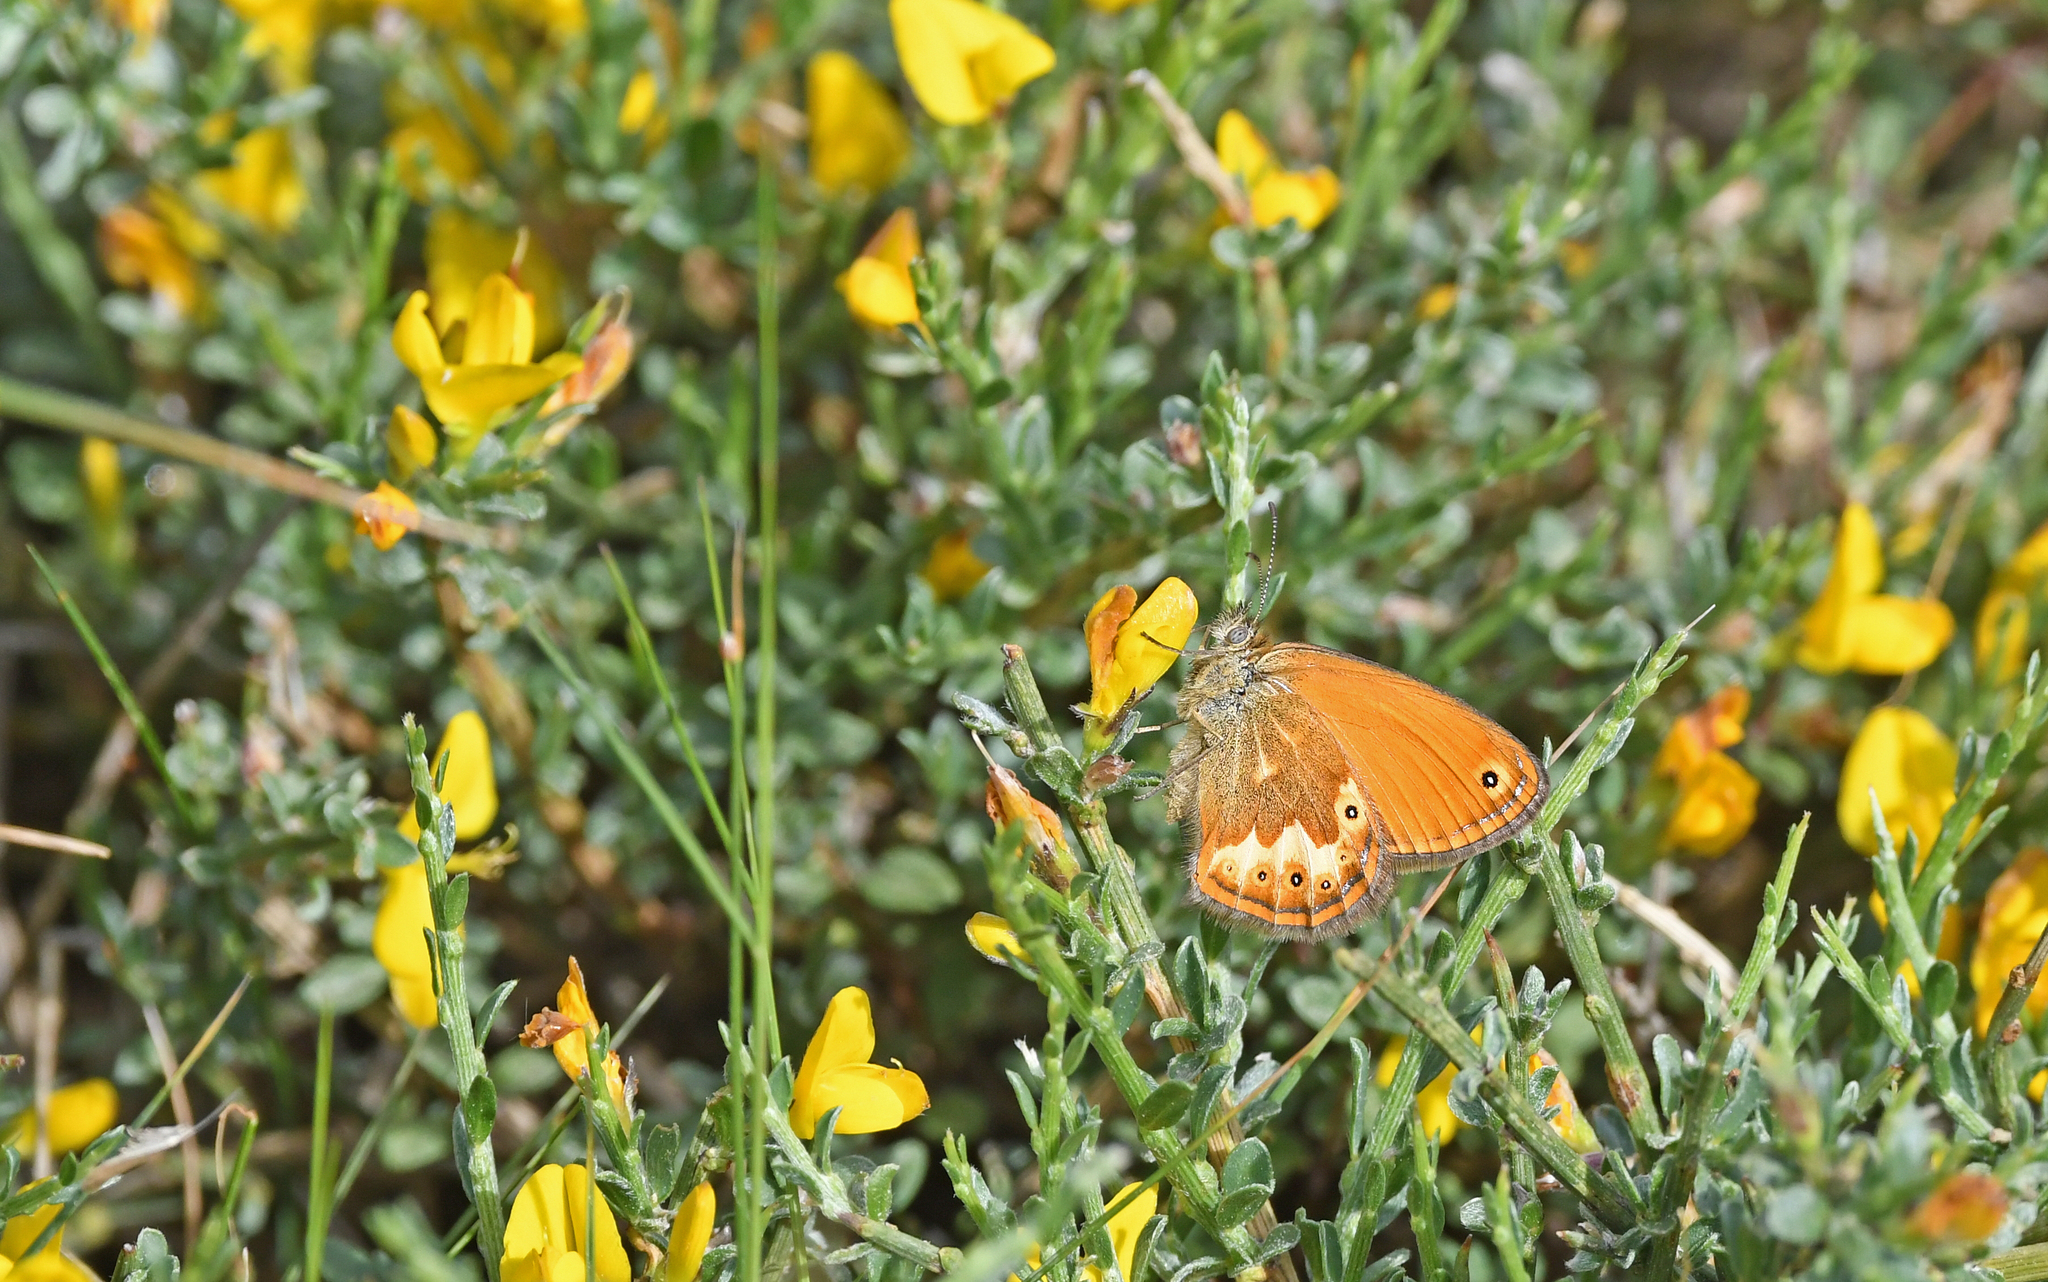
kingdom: Animalia
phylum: Arthropoda
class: Insecta
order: Lepidoptera
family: Nymphalidae
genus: Coenonympha
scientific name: Coenonympha corinna
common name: Corsican heath
